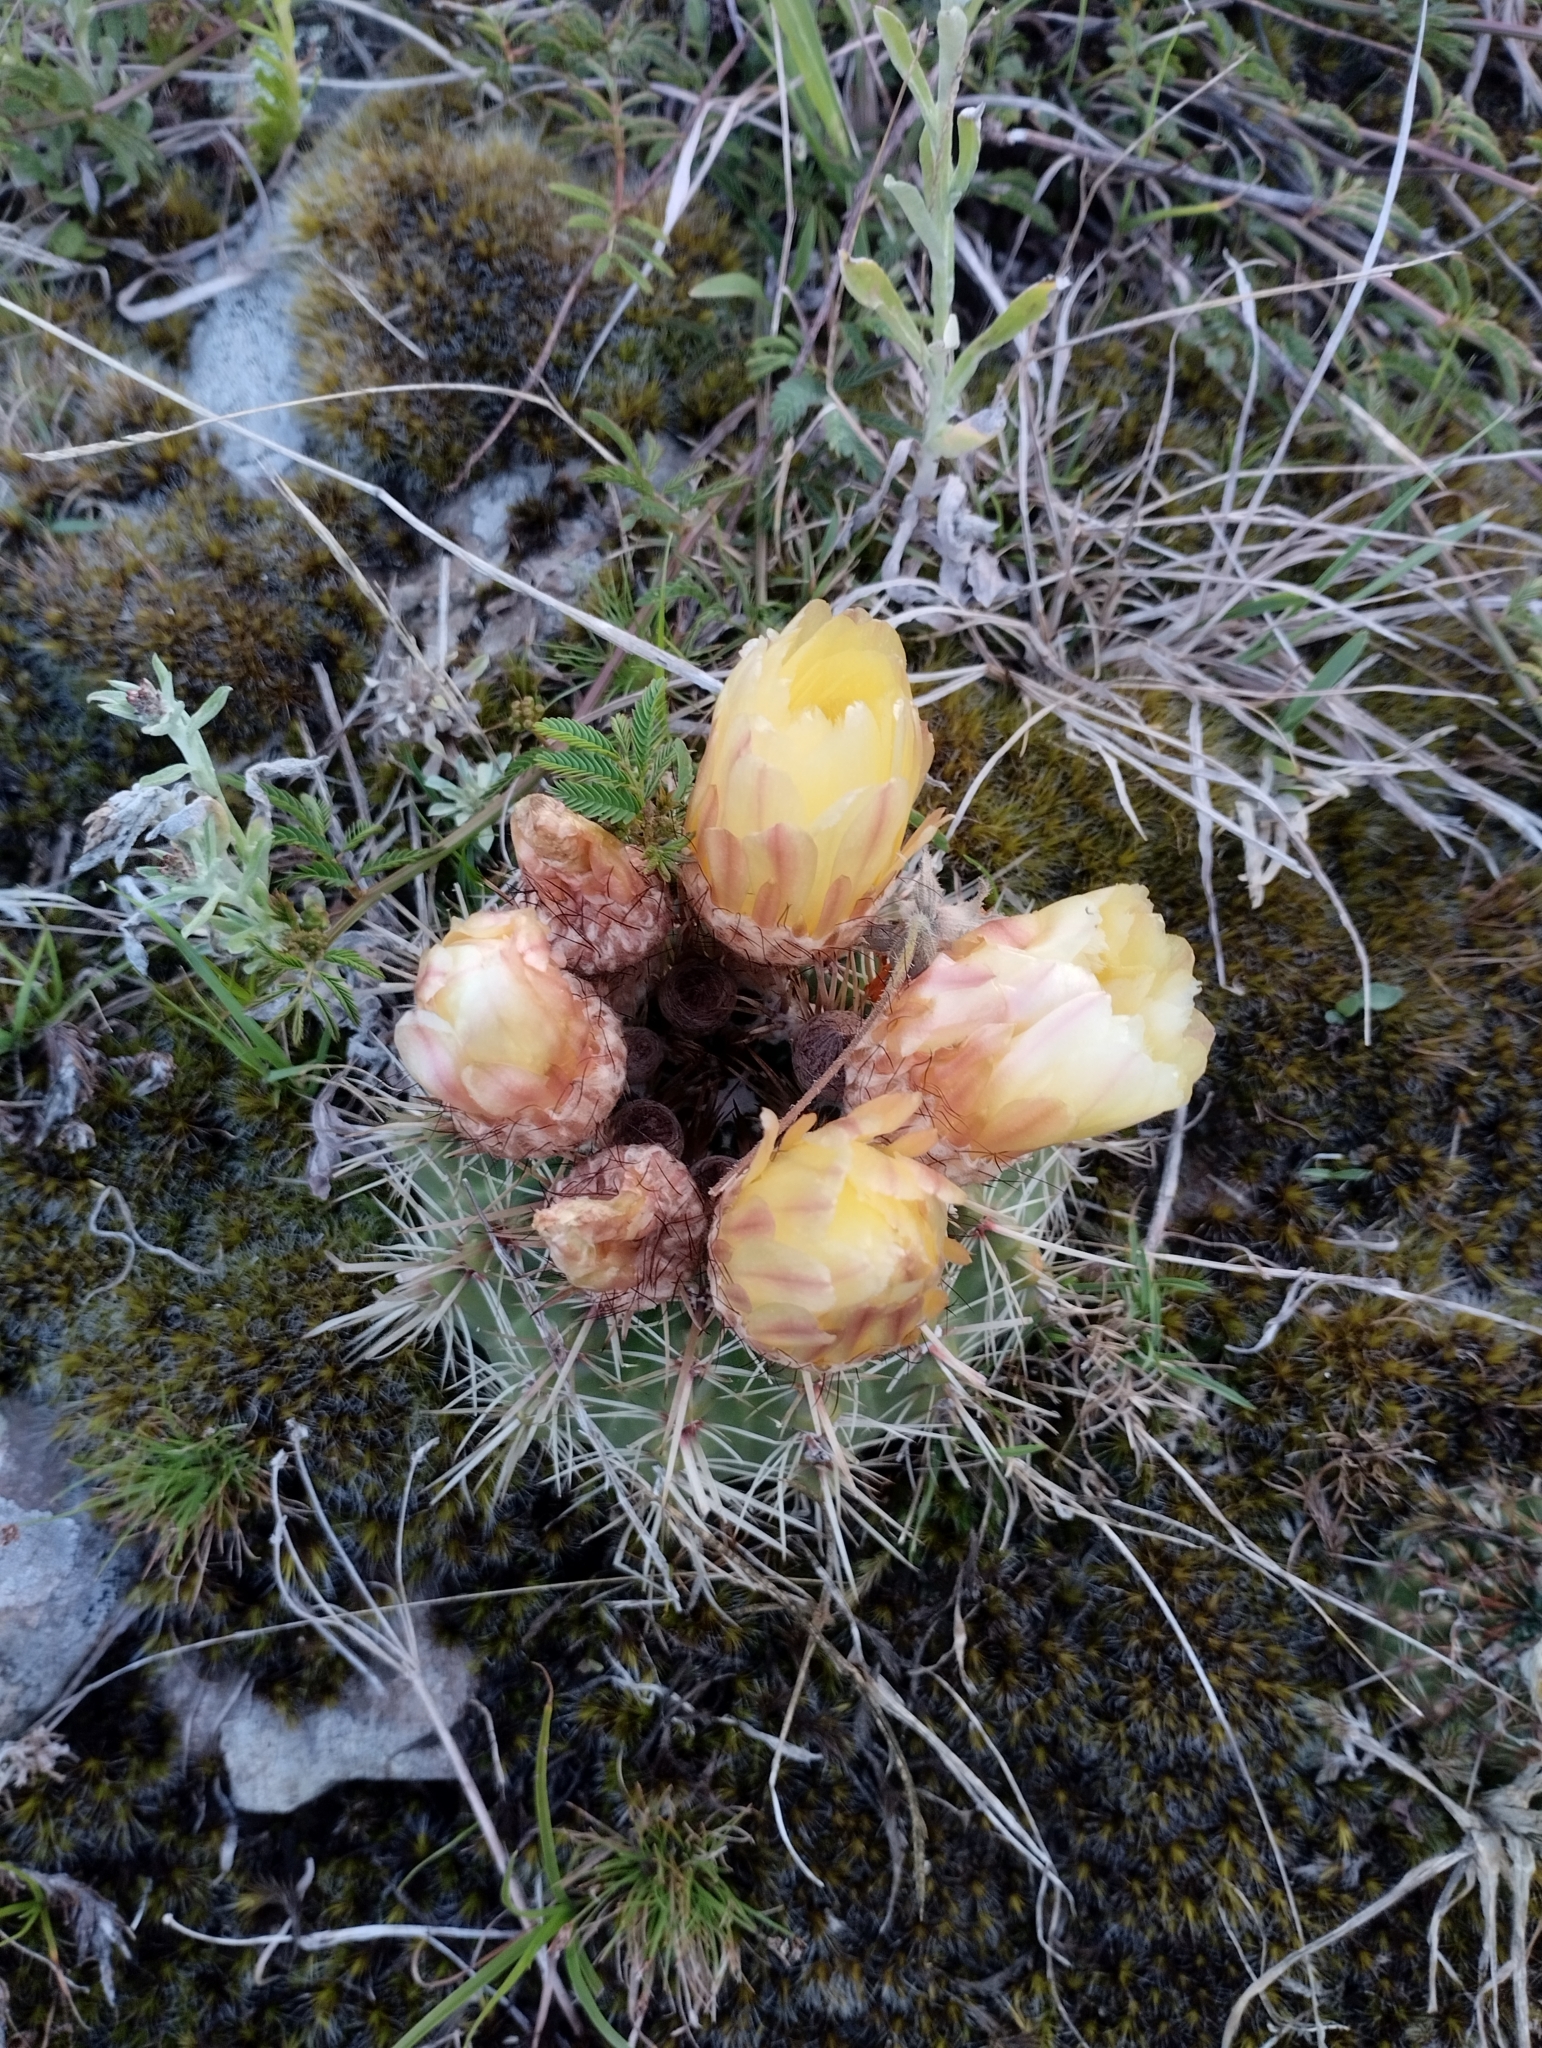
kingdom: Plantae
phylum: Tracheophyta
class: Magnoliopsida
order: Caryophyllales
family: Cactaceae
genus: Parodia
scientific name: Parodia mammulosa
